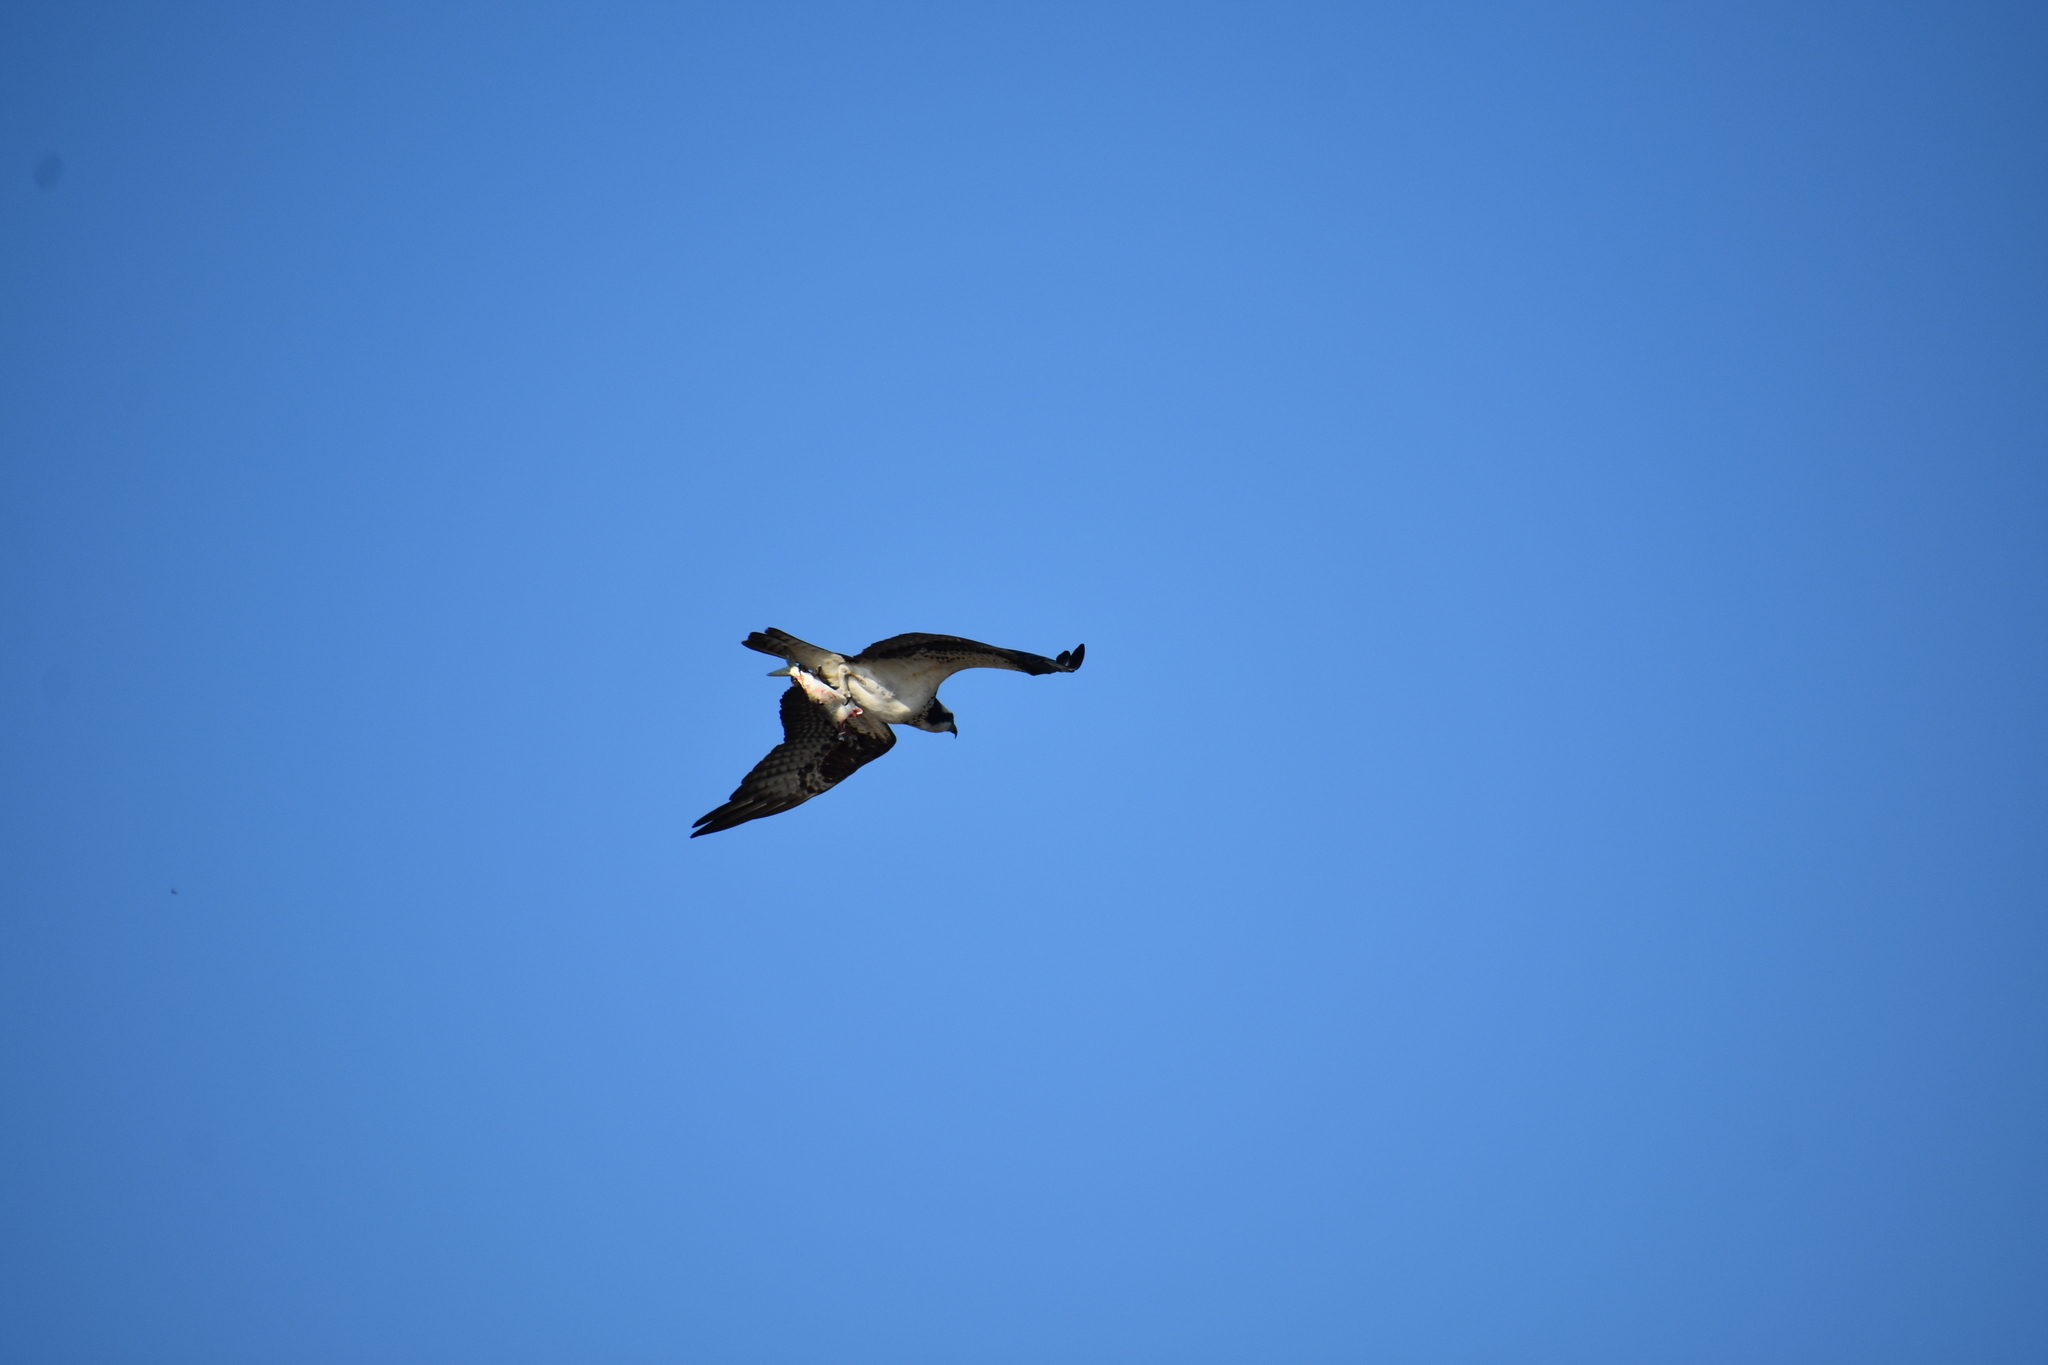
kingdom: Animalia
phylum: Chordata
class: Aves
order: Accipitriformes
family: Pandionidae
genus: Pandion
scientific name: Pandion haliaetus
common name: Osprey
